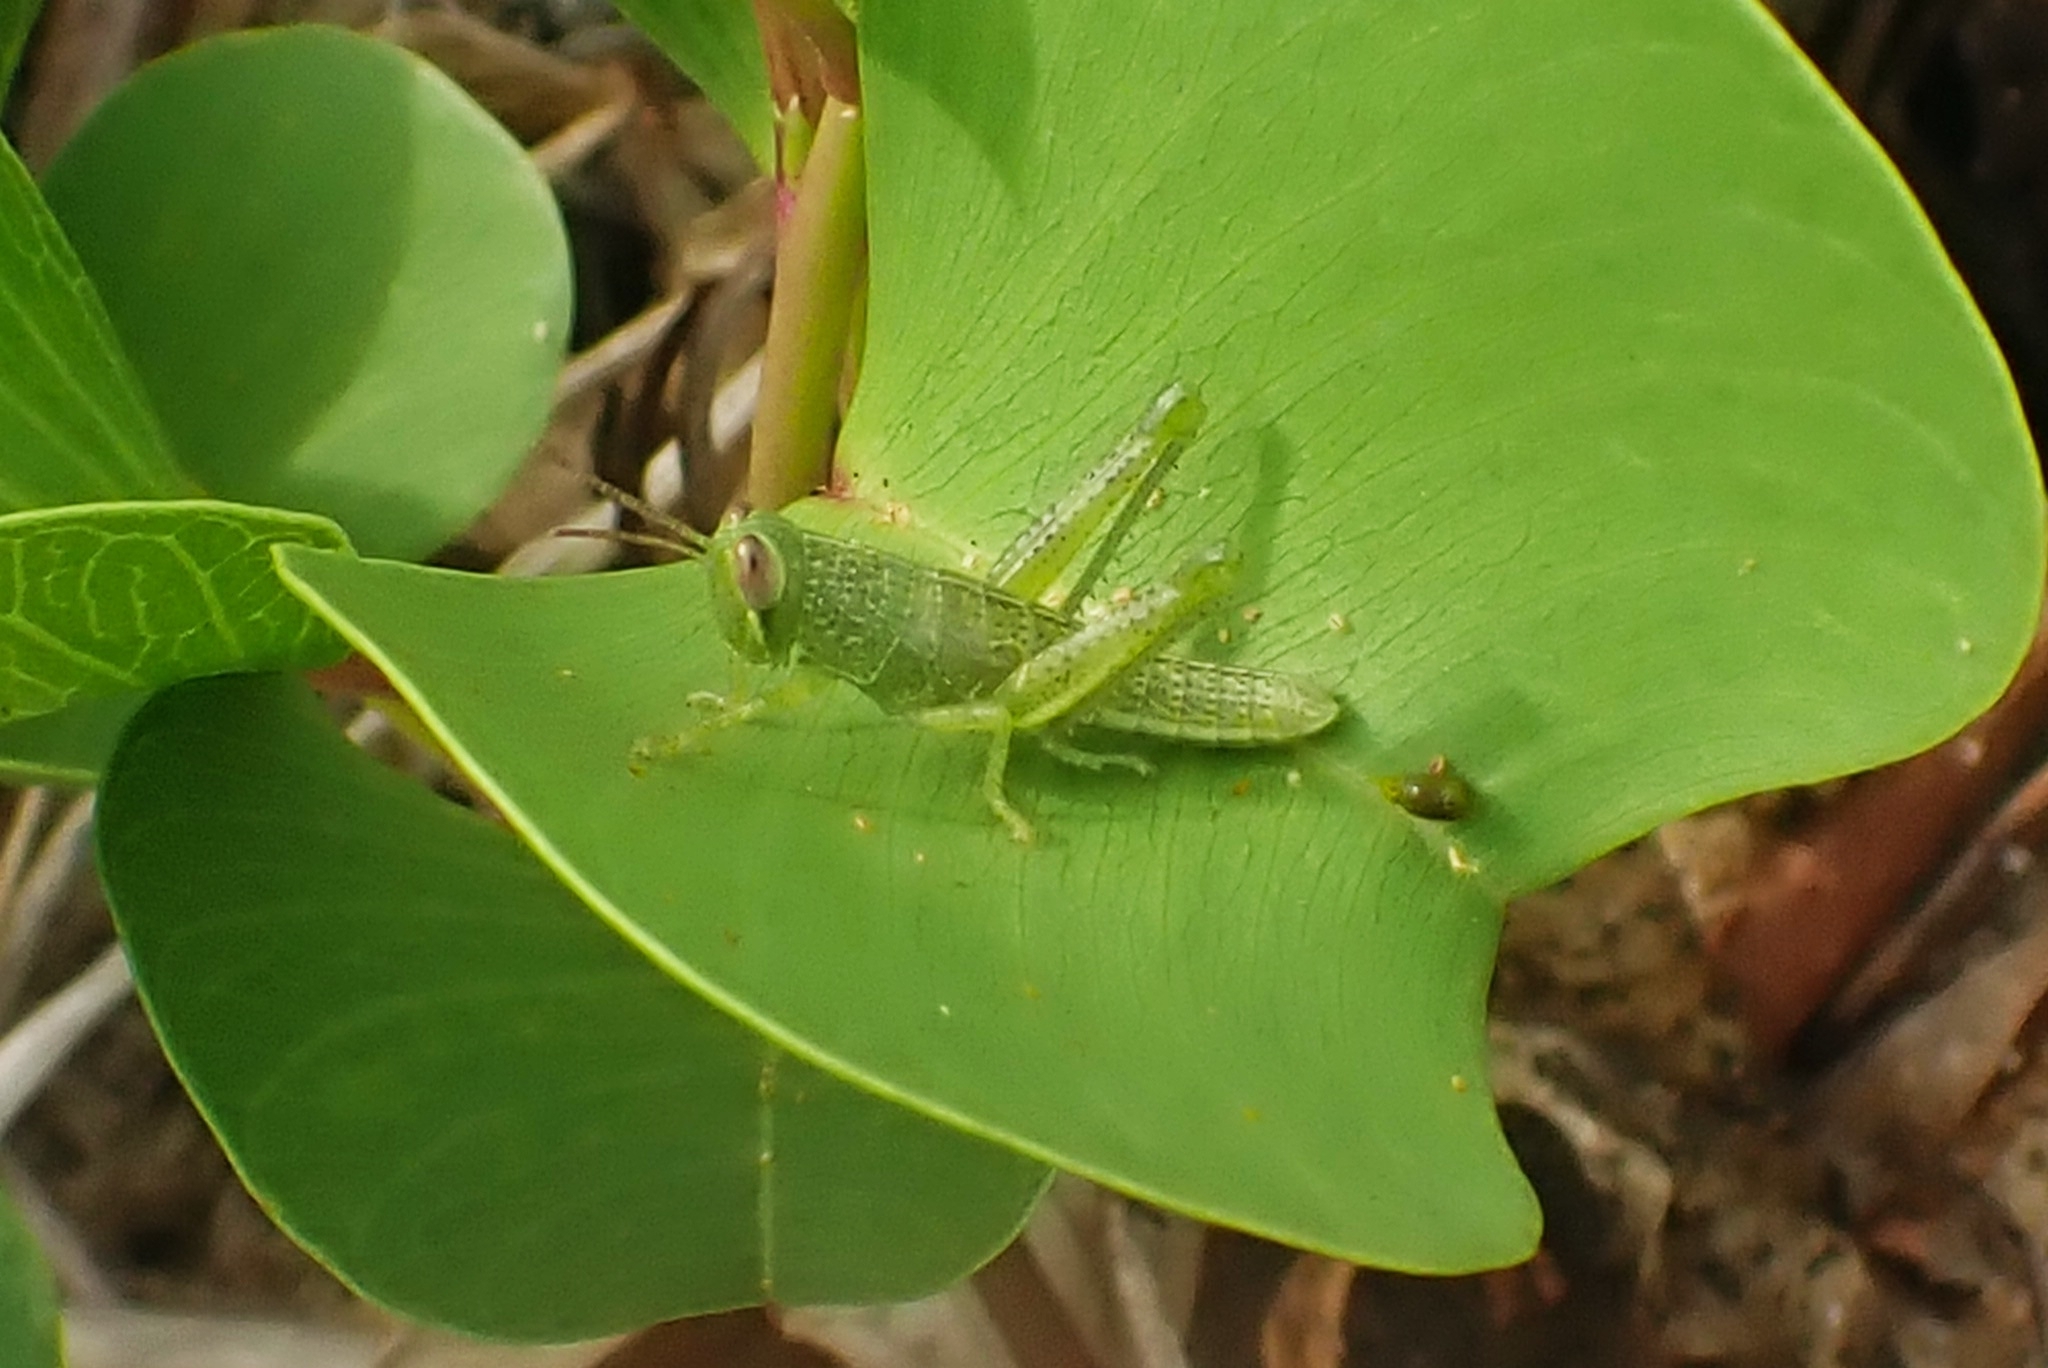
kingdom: Animalia
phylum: Arthropoda
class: Insecta
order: Orthoptera
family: Acrididae
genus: Valanga
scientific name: Valanga nigricornis
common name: Javanese bird grasshopper
